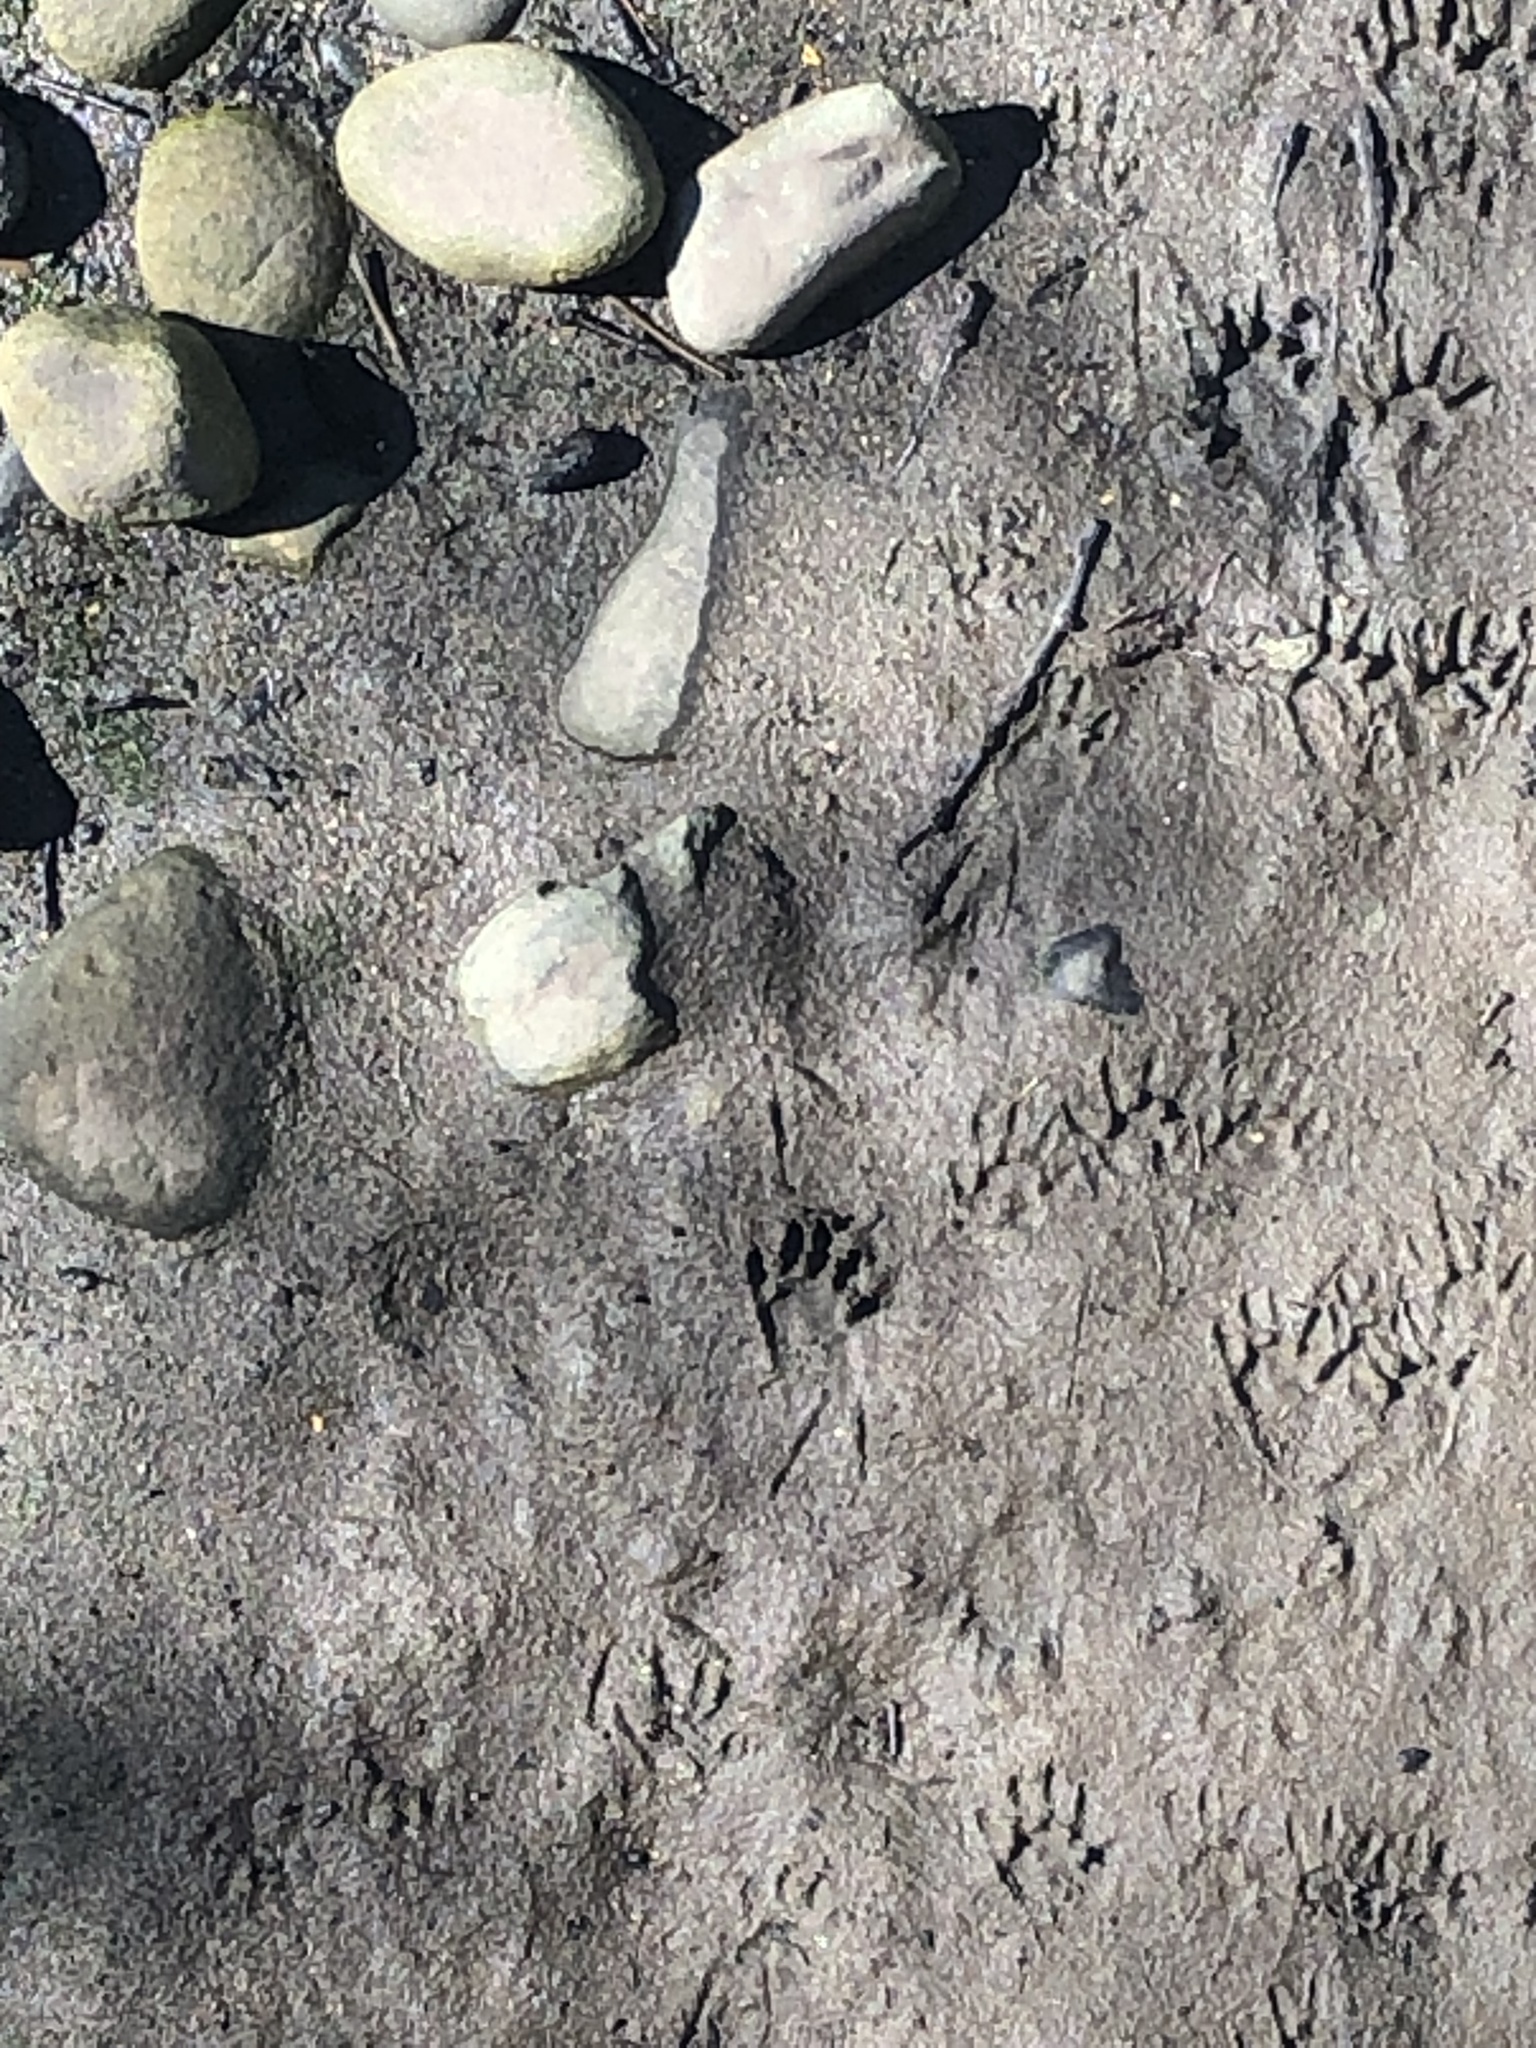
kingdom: Animalia
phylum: Chordata
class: Mammalia
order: Carnivora
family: Procyonidae
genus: Procyon
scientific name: Procyon lotor
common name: Raccoon
